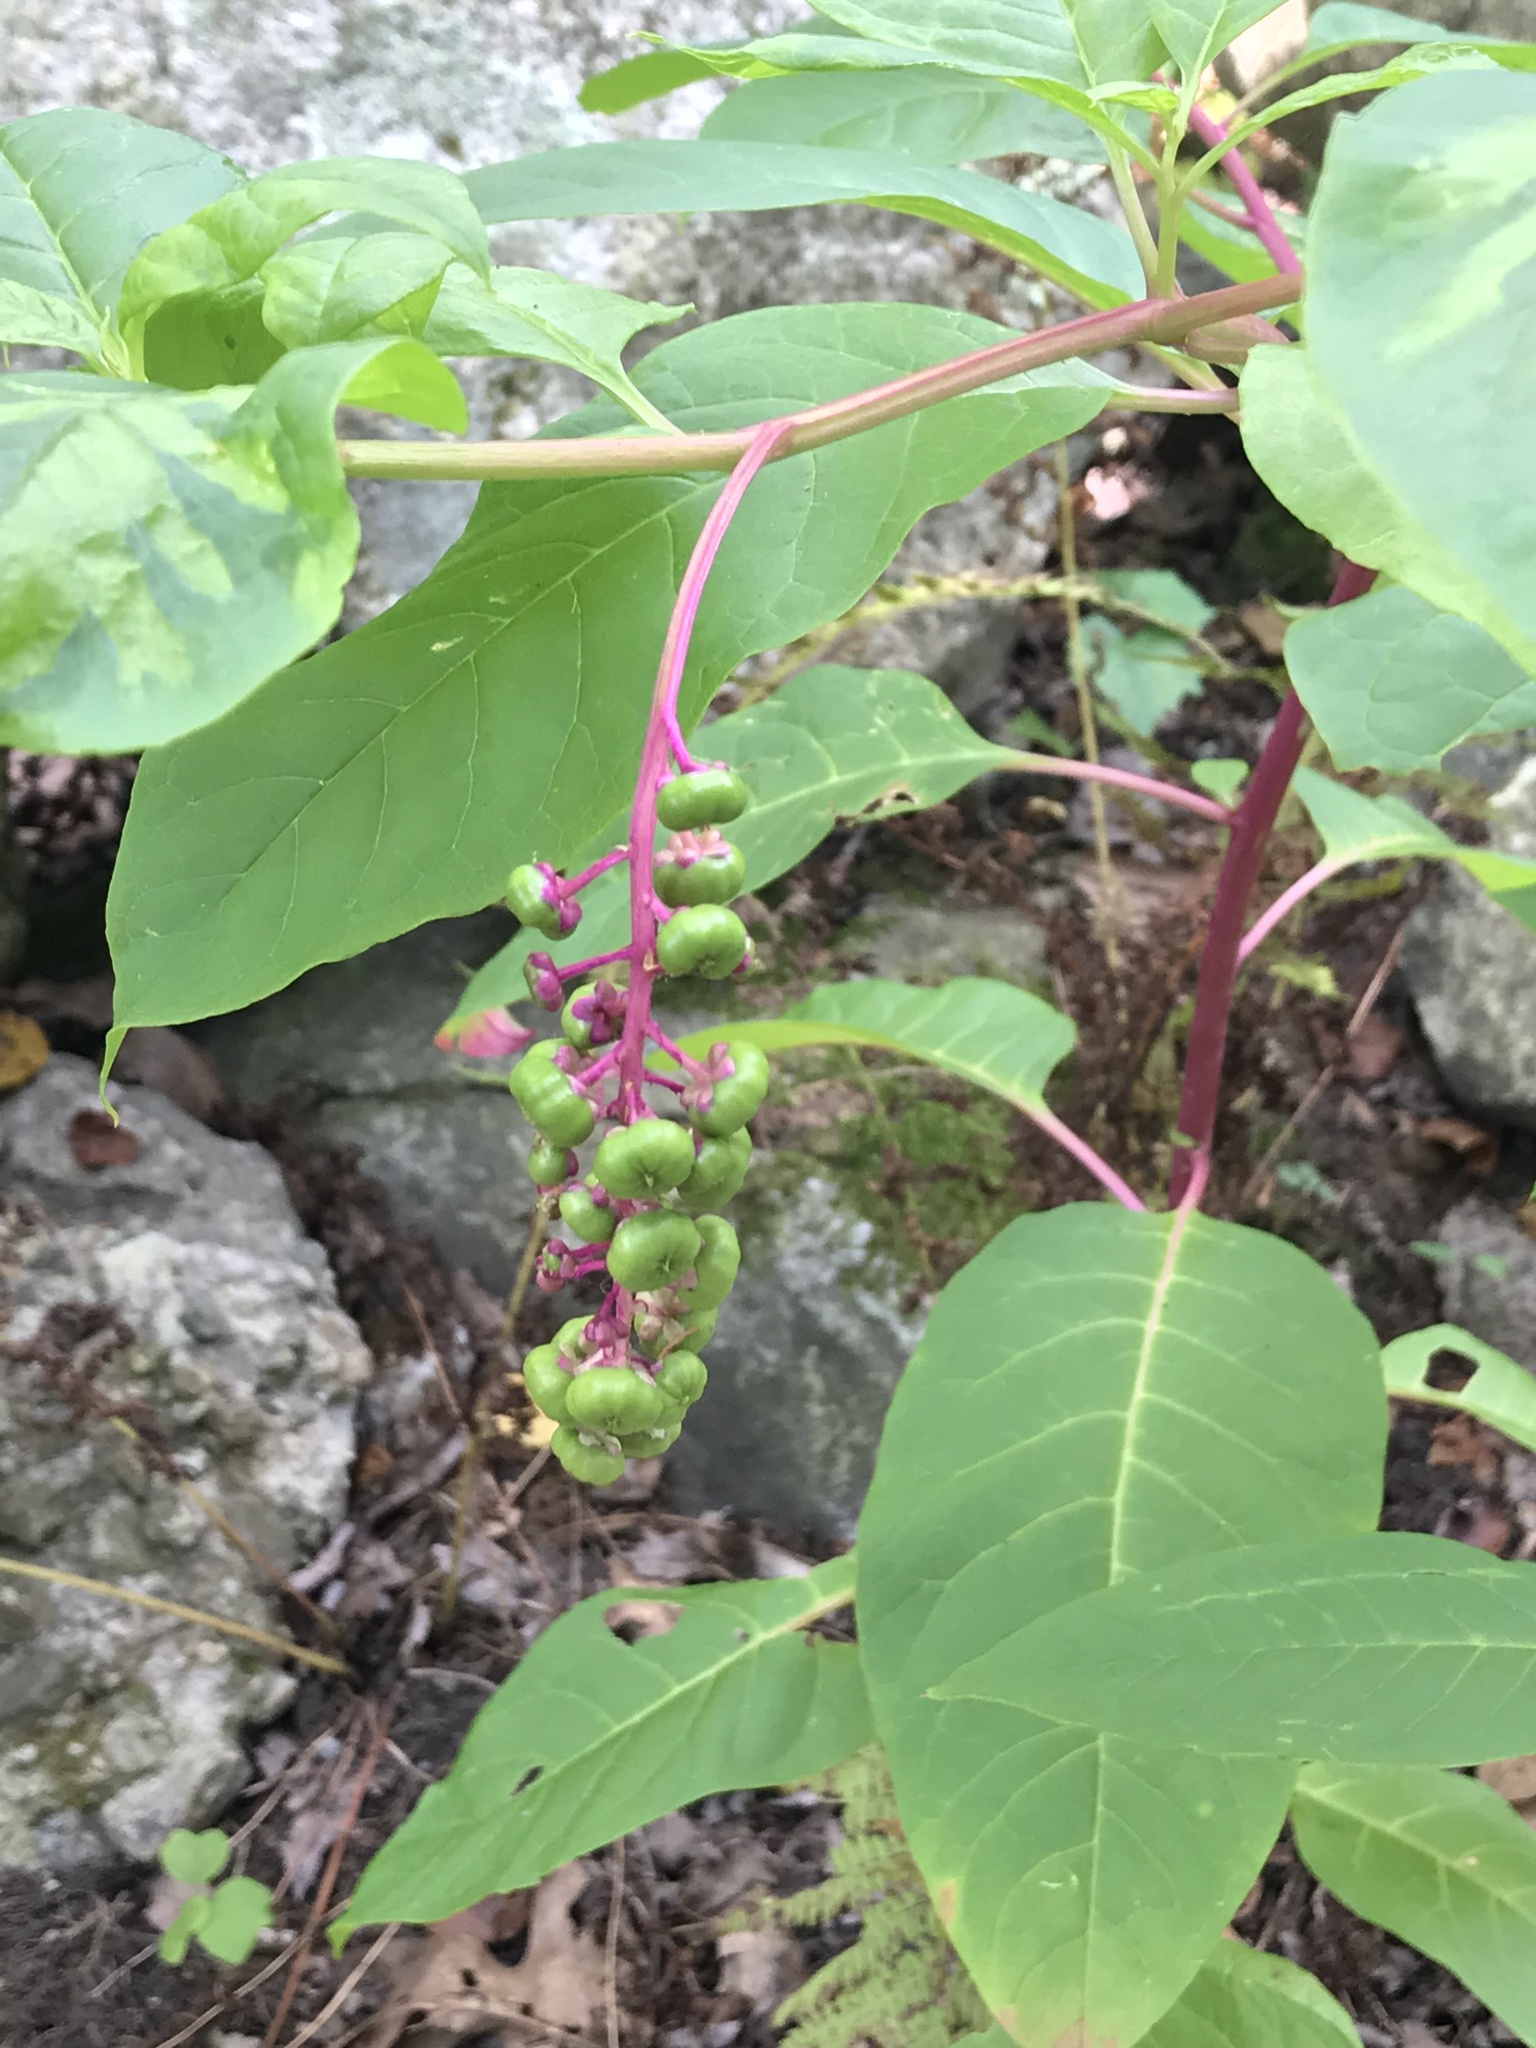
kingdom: Plantae
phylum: Tracheophyta
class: Magnoliopsida
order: Caryophyllales
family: Phytolaccaceae
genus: Phytolacca
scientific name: Phytolacca americana
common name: American pokeweed
